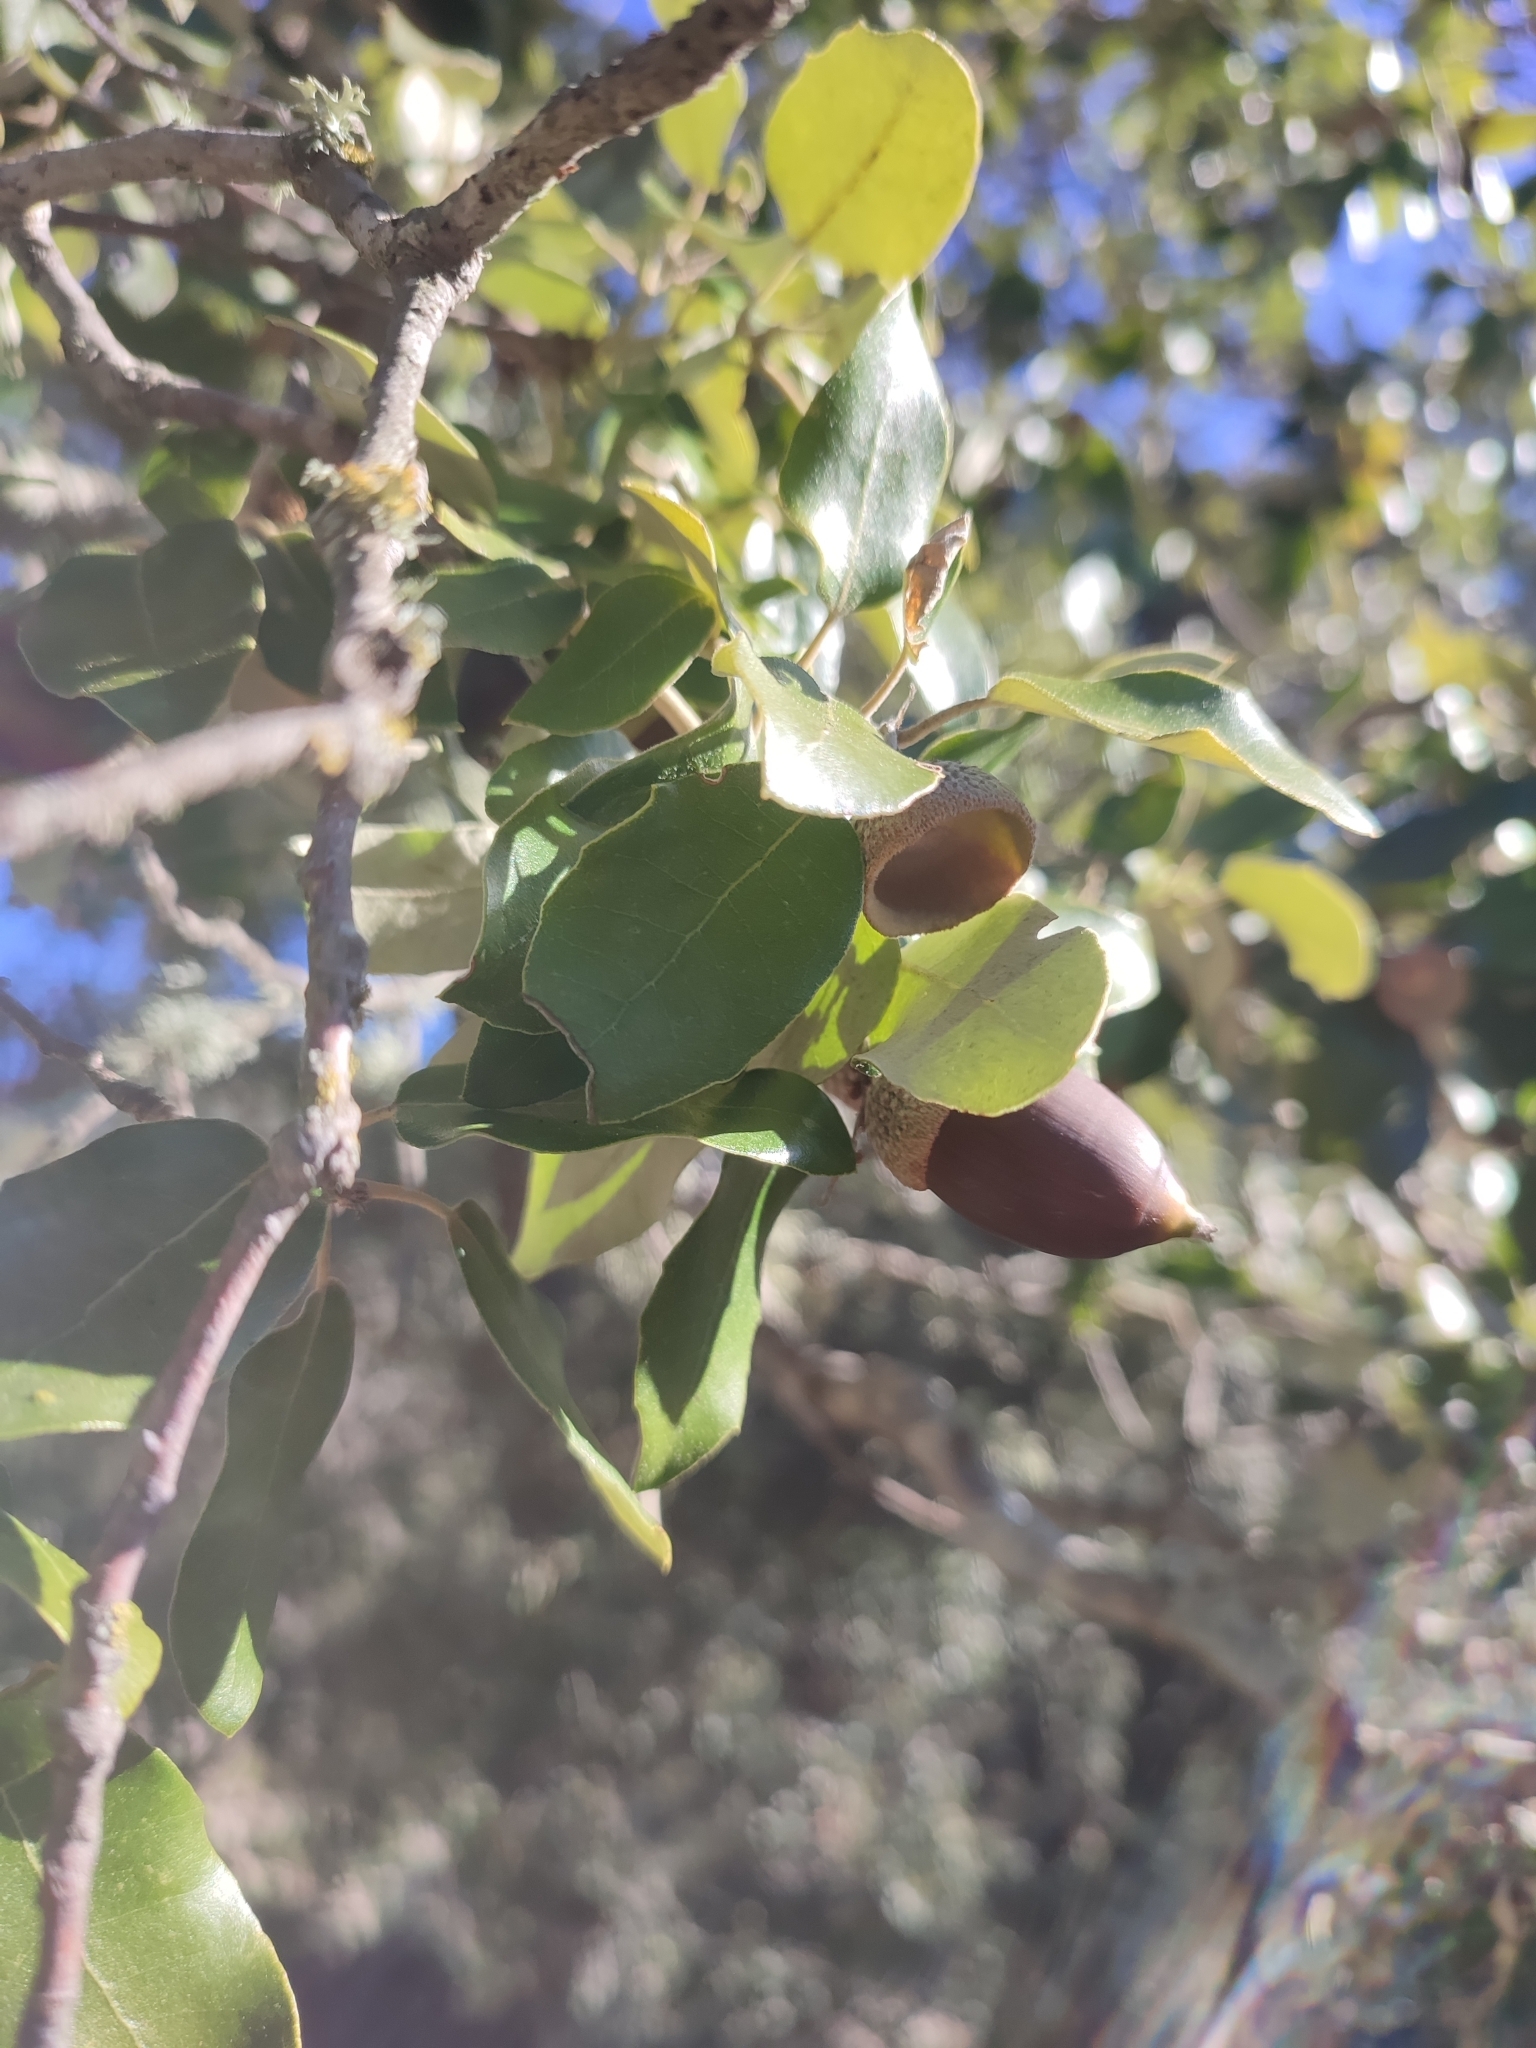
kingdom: Plantae
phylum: Tracheophyta
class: Magnoliopsida
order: Fagales
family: Fagaceae
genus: Quercus
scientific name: Quercus ilex
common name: Evergreen oak
